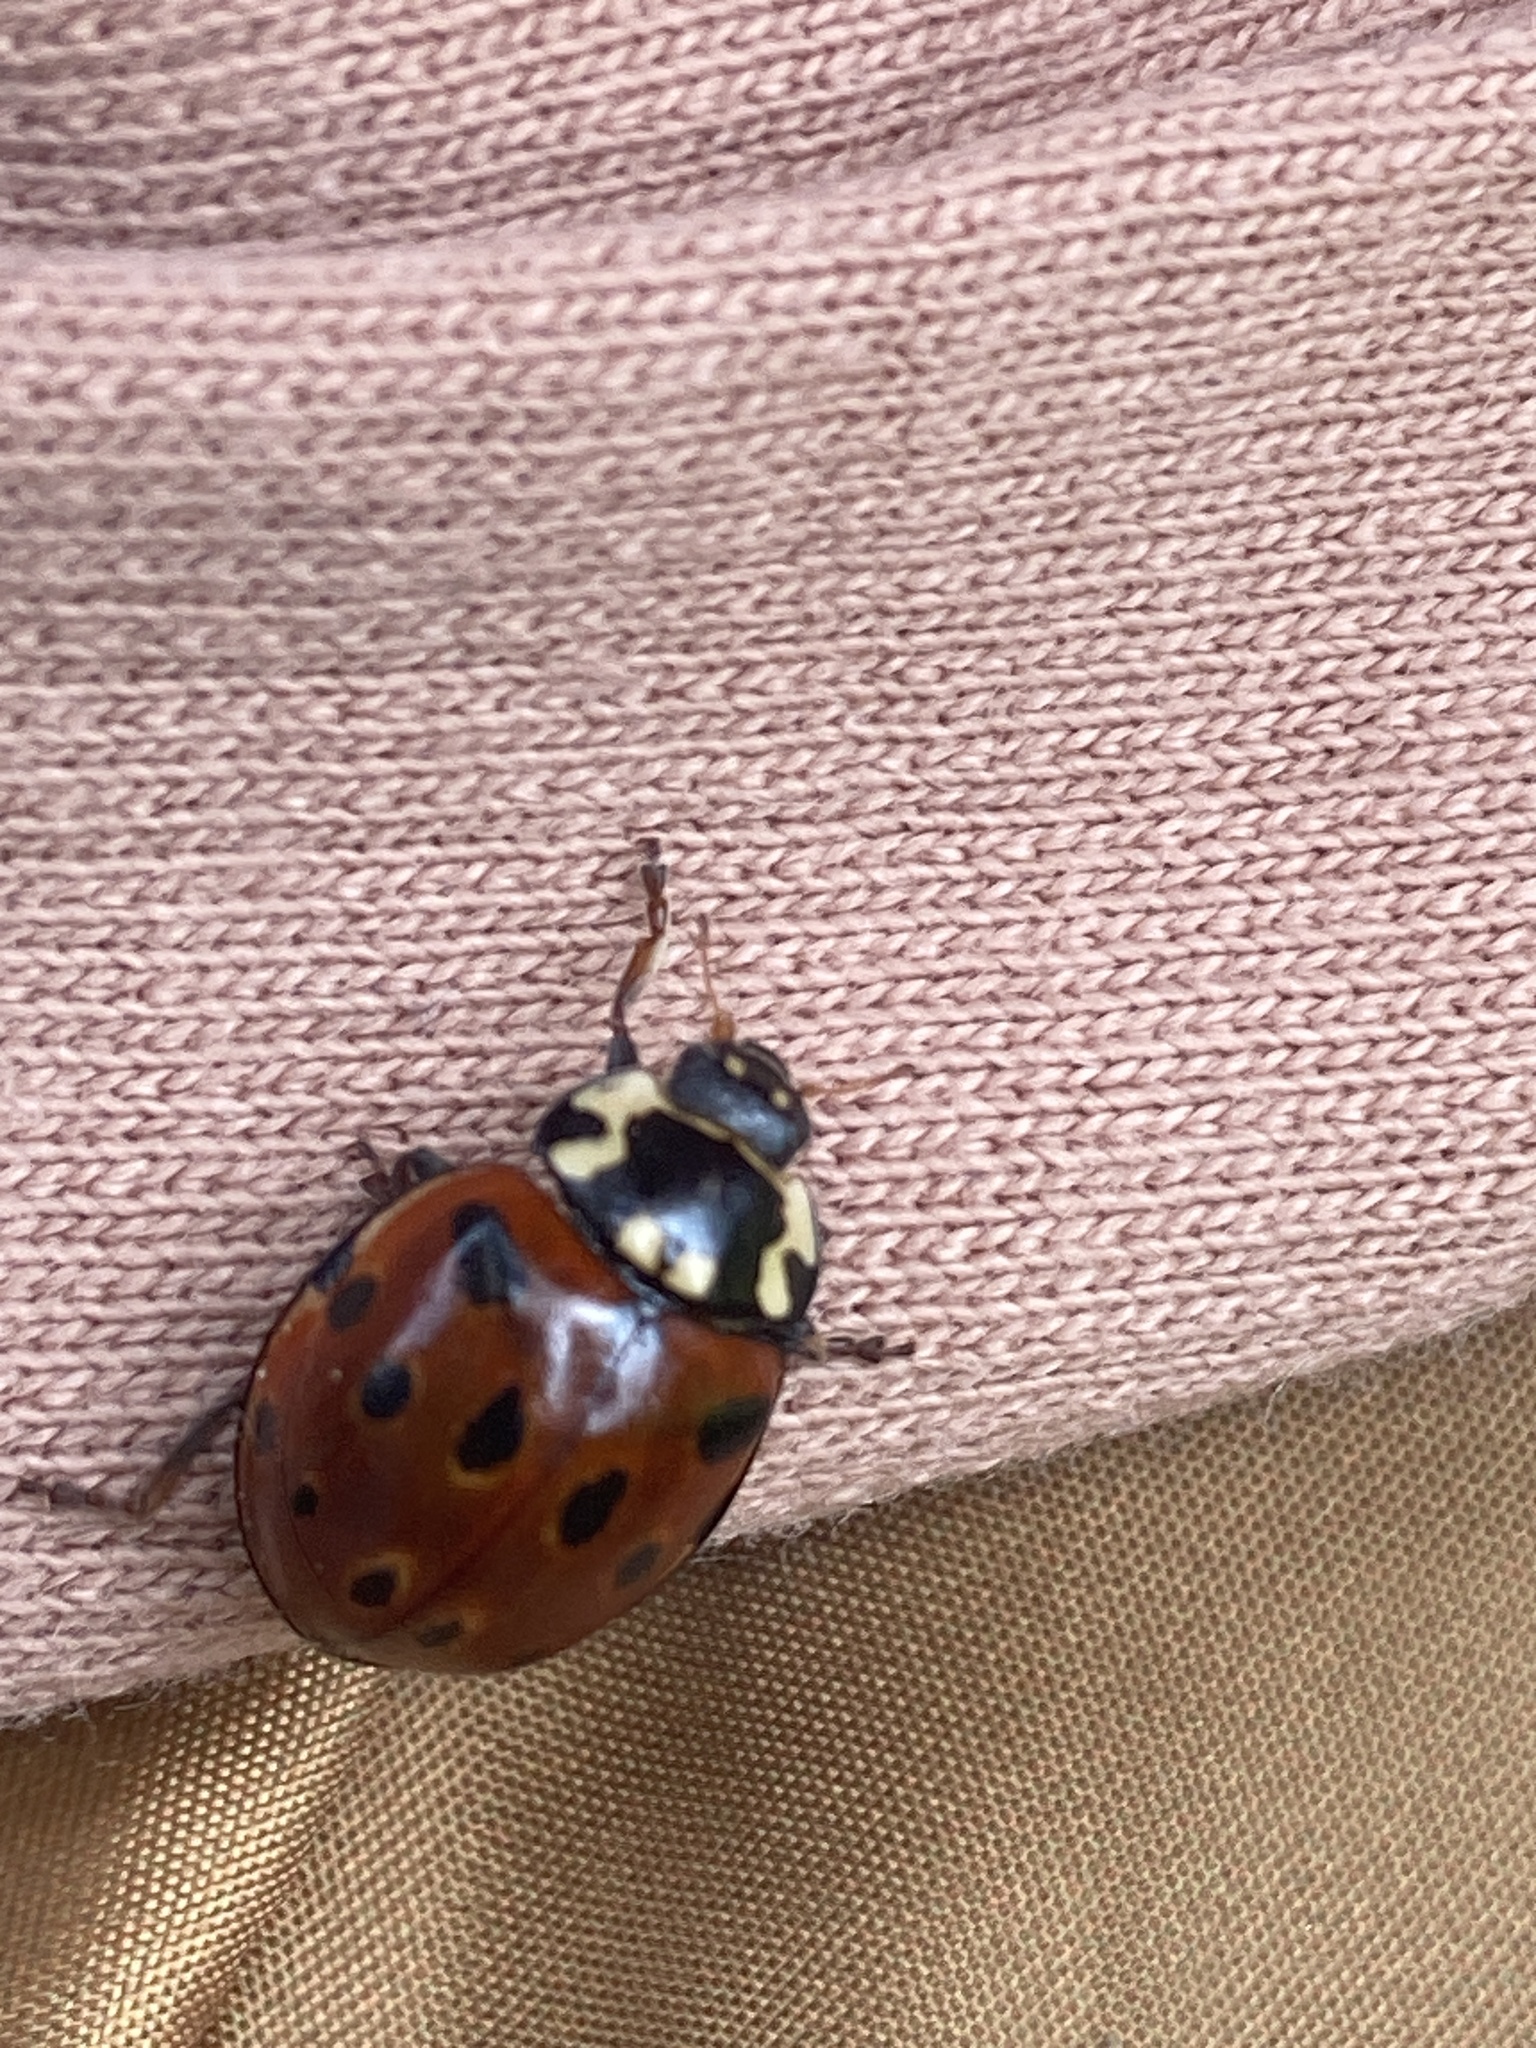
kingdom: Animalia
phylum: Arthropoda
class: Insecta
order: Coleoptera
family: Coccinellidae
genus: Anatis
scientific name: Anatis ocellata
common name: Eyed ladybird
